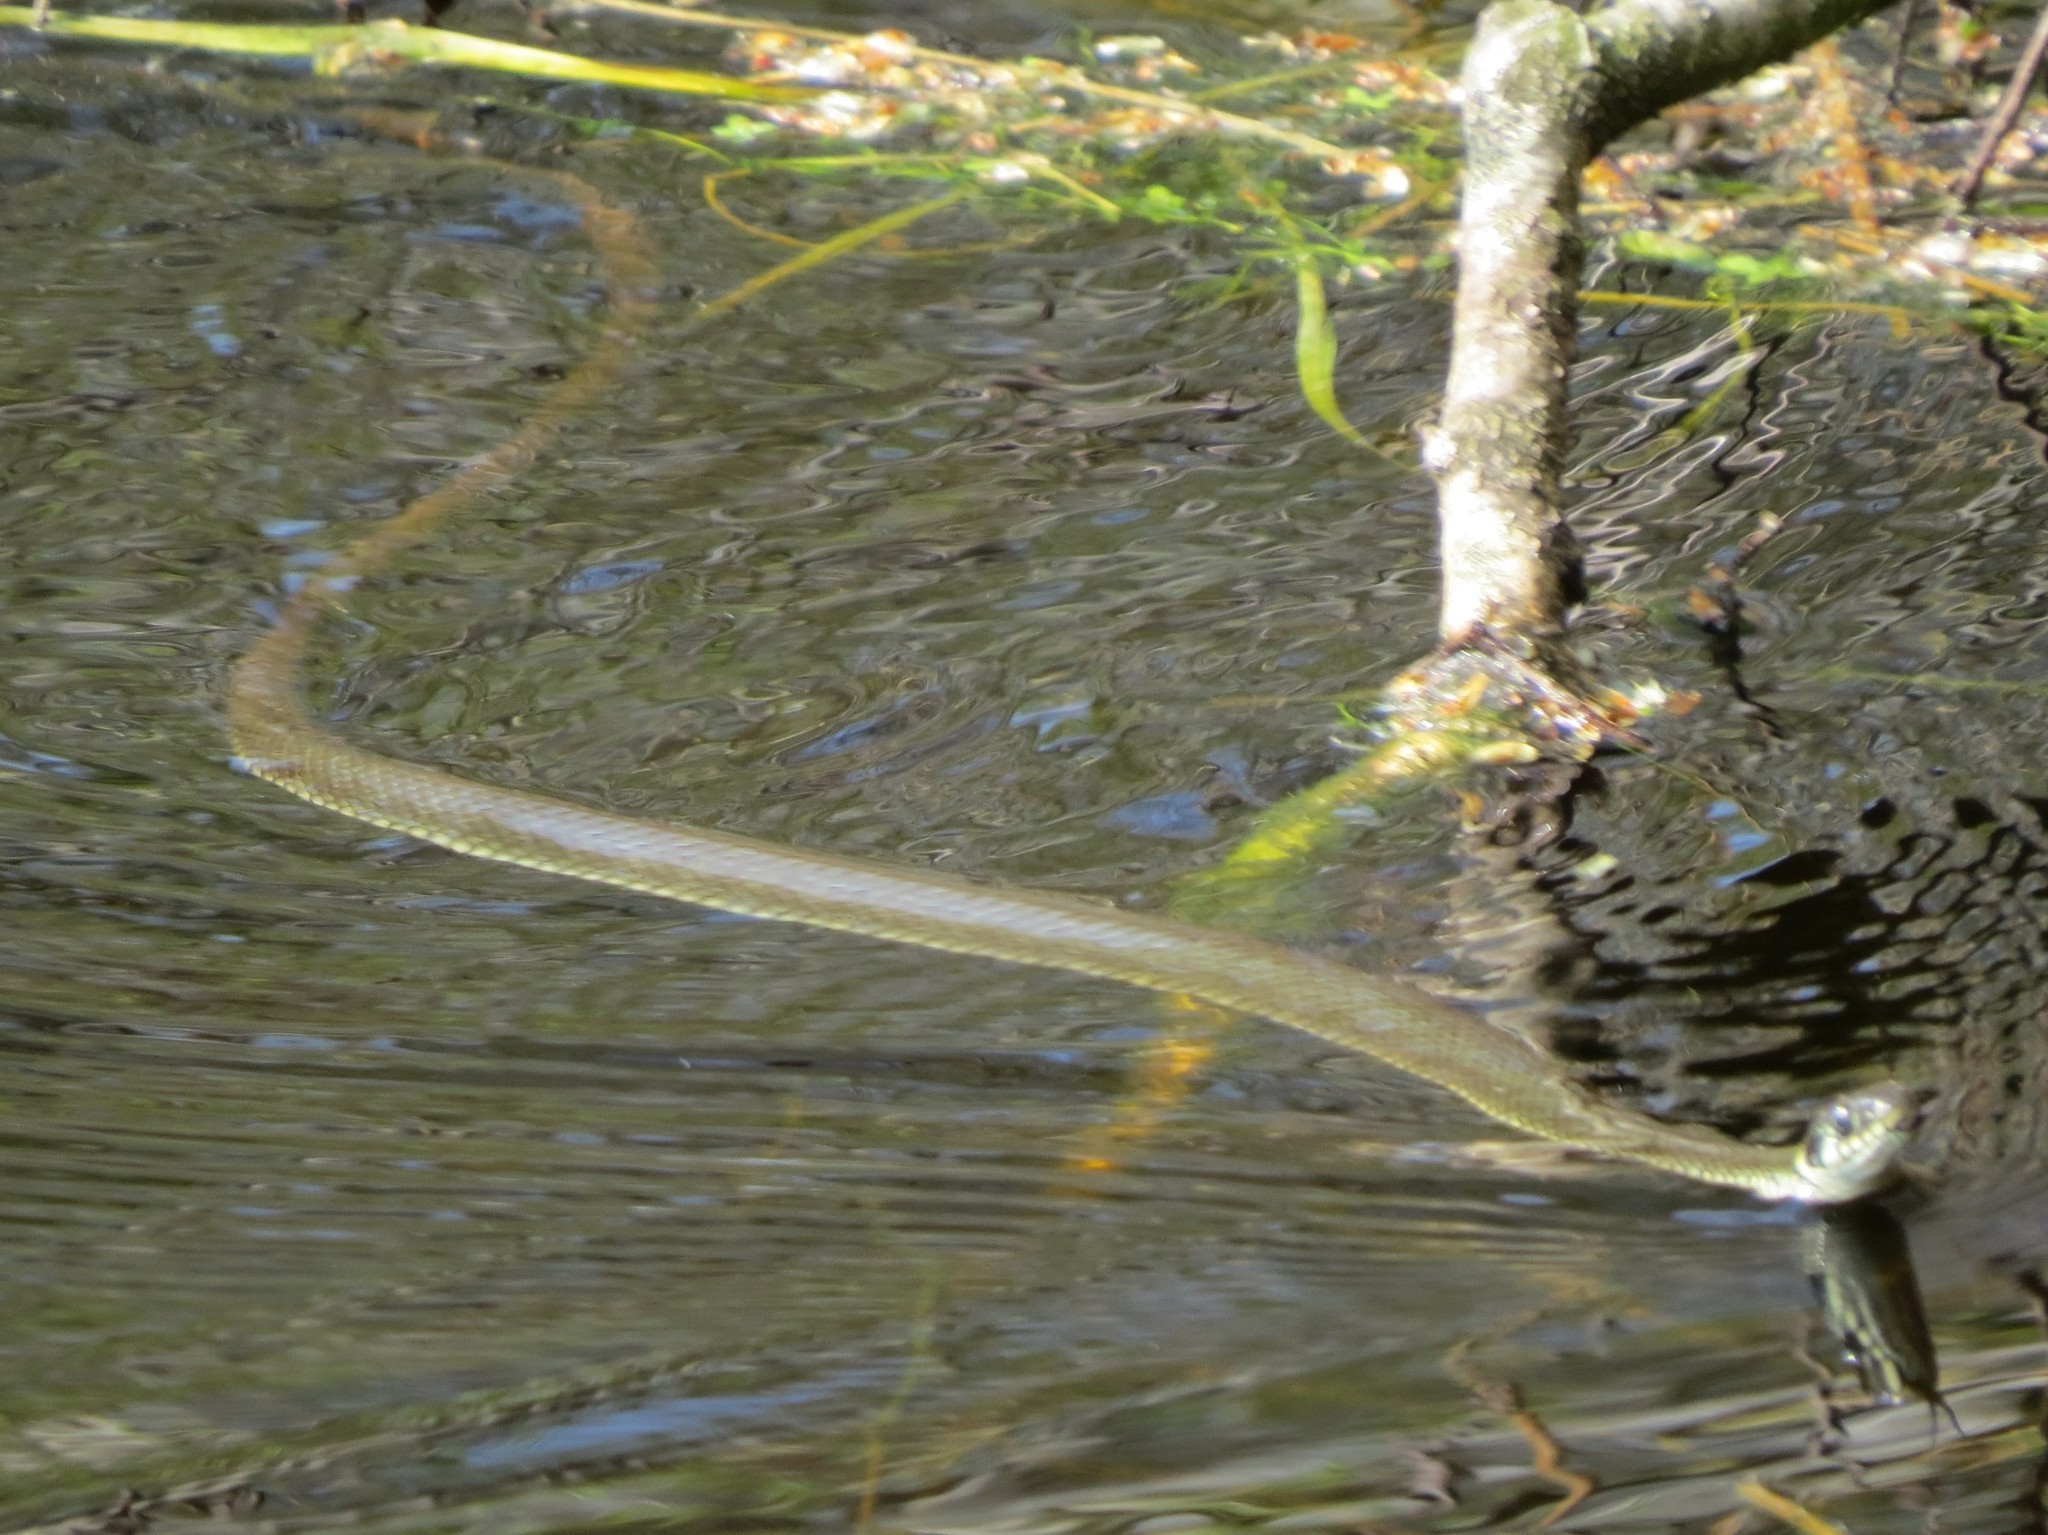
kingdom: Animalia
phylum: Chordata
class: Squamata
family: Colubridae
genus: Natrix
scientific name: Natrix natrix
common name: Grass snake
